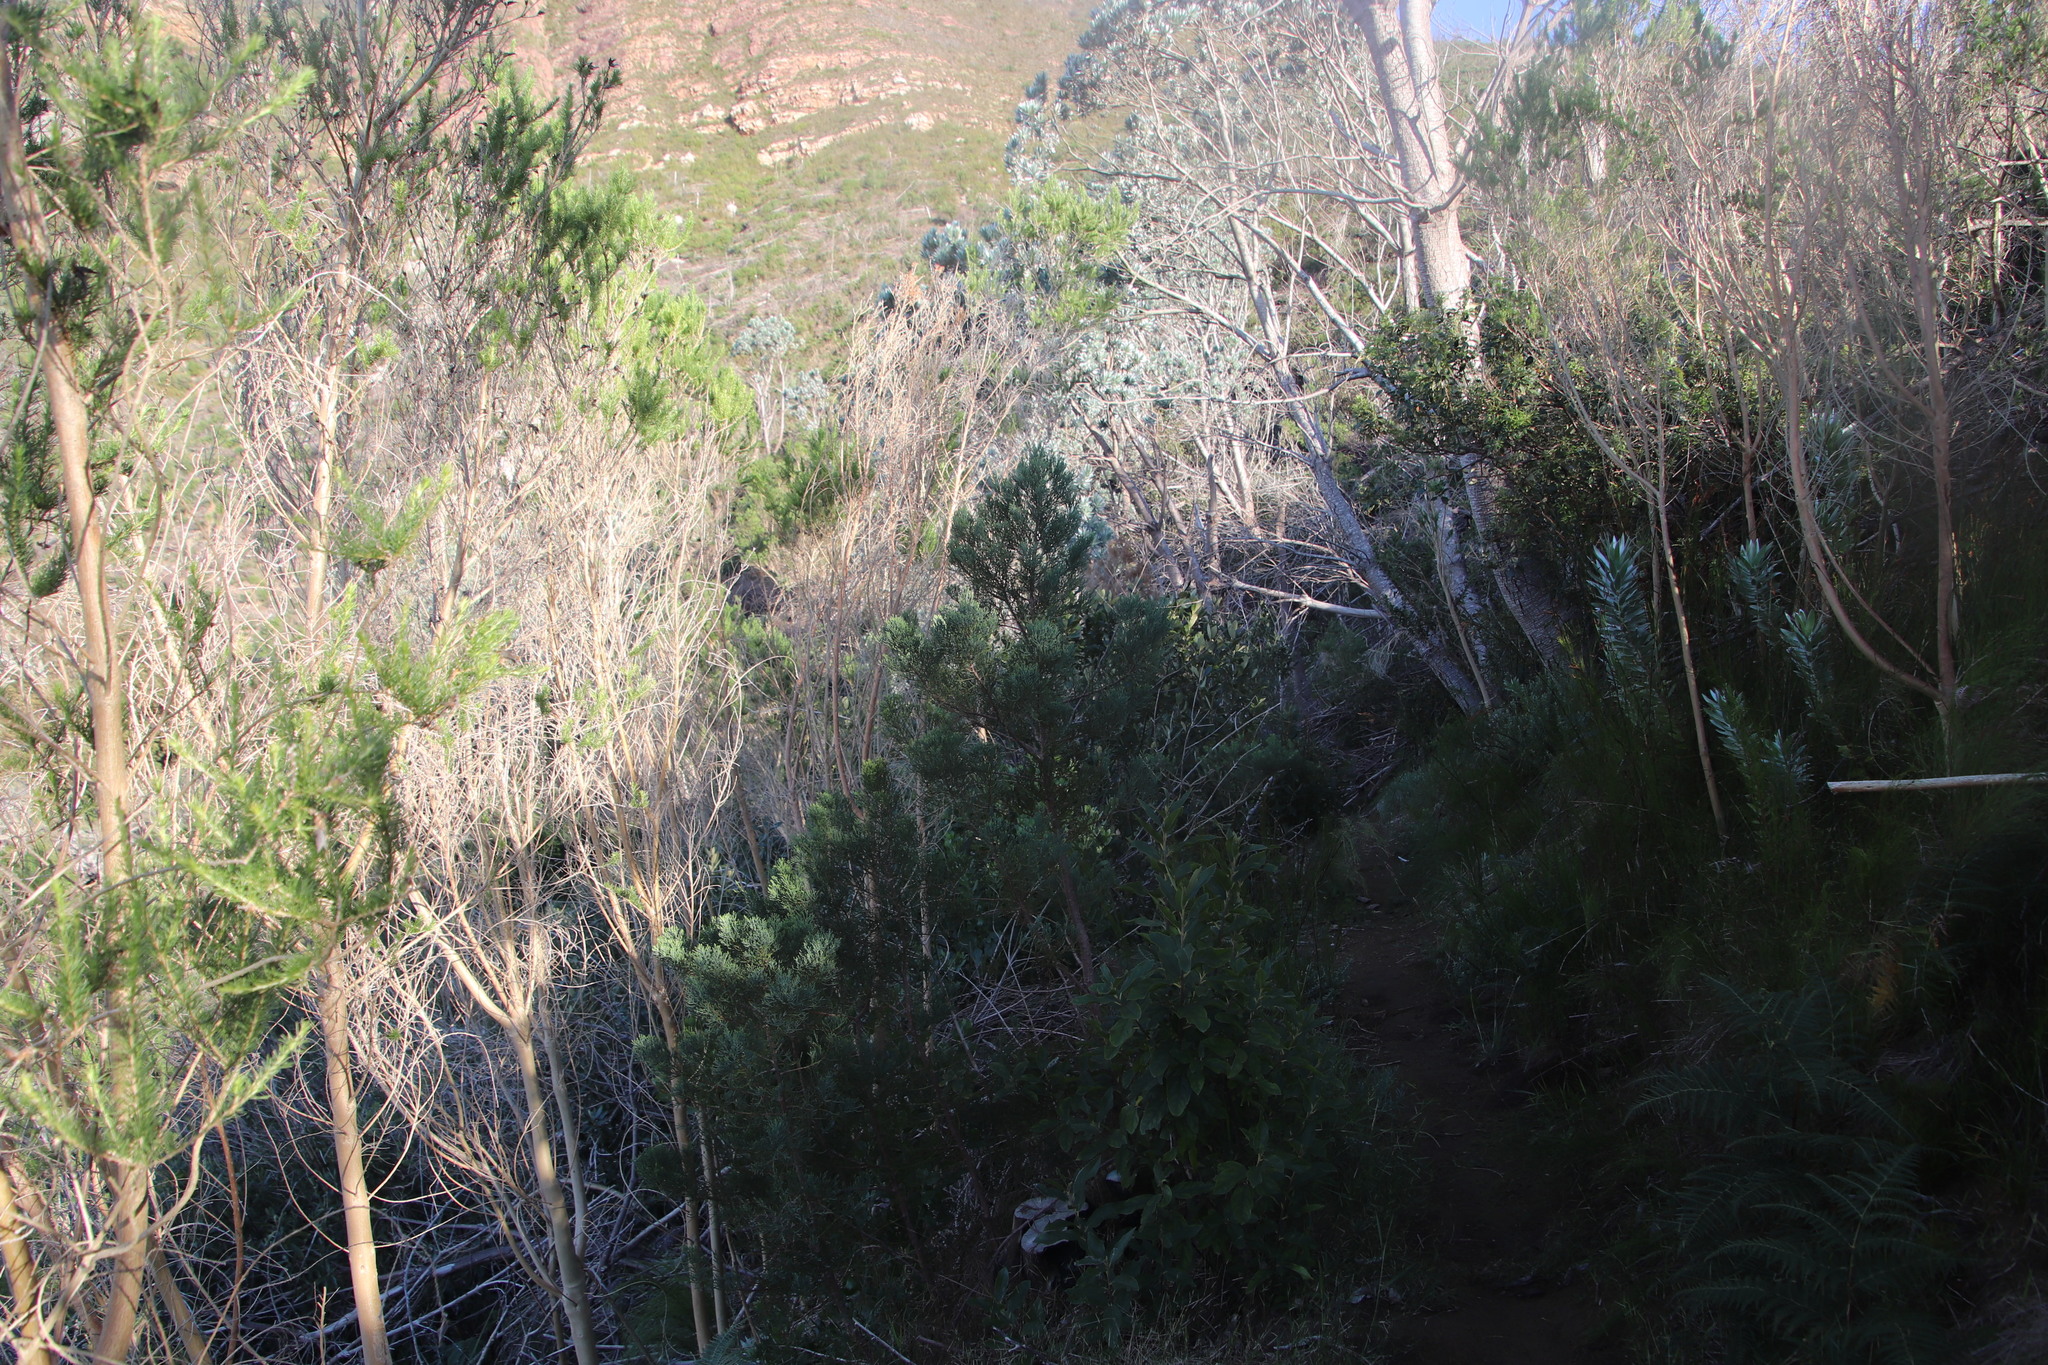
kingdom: Plantae
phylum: Tracheophyta
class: Pinopsida
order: Pinales
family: Cupressaceae
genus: Widdringtonia
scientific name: Widdringtonia nodiflora
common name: Cape cypress
